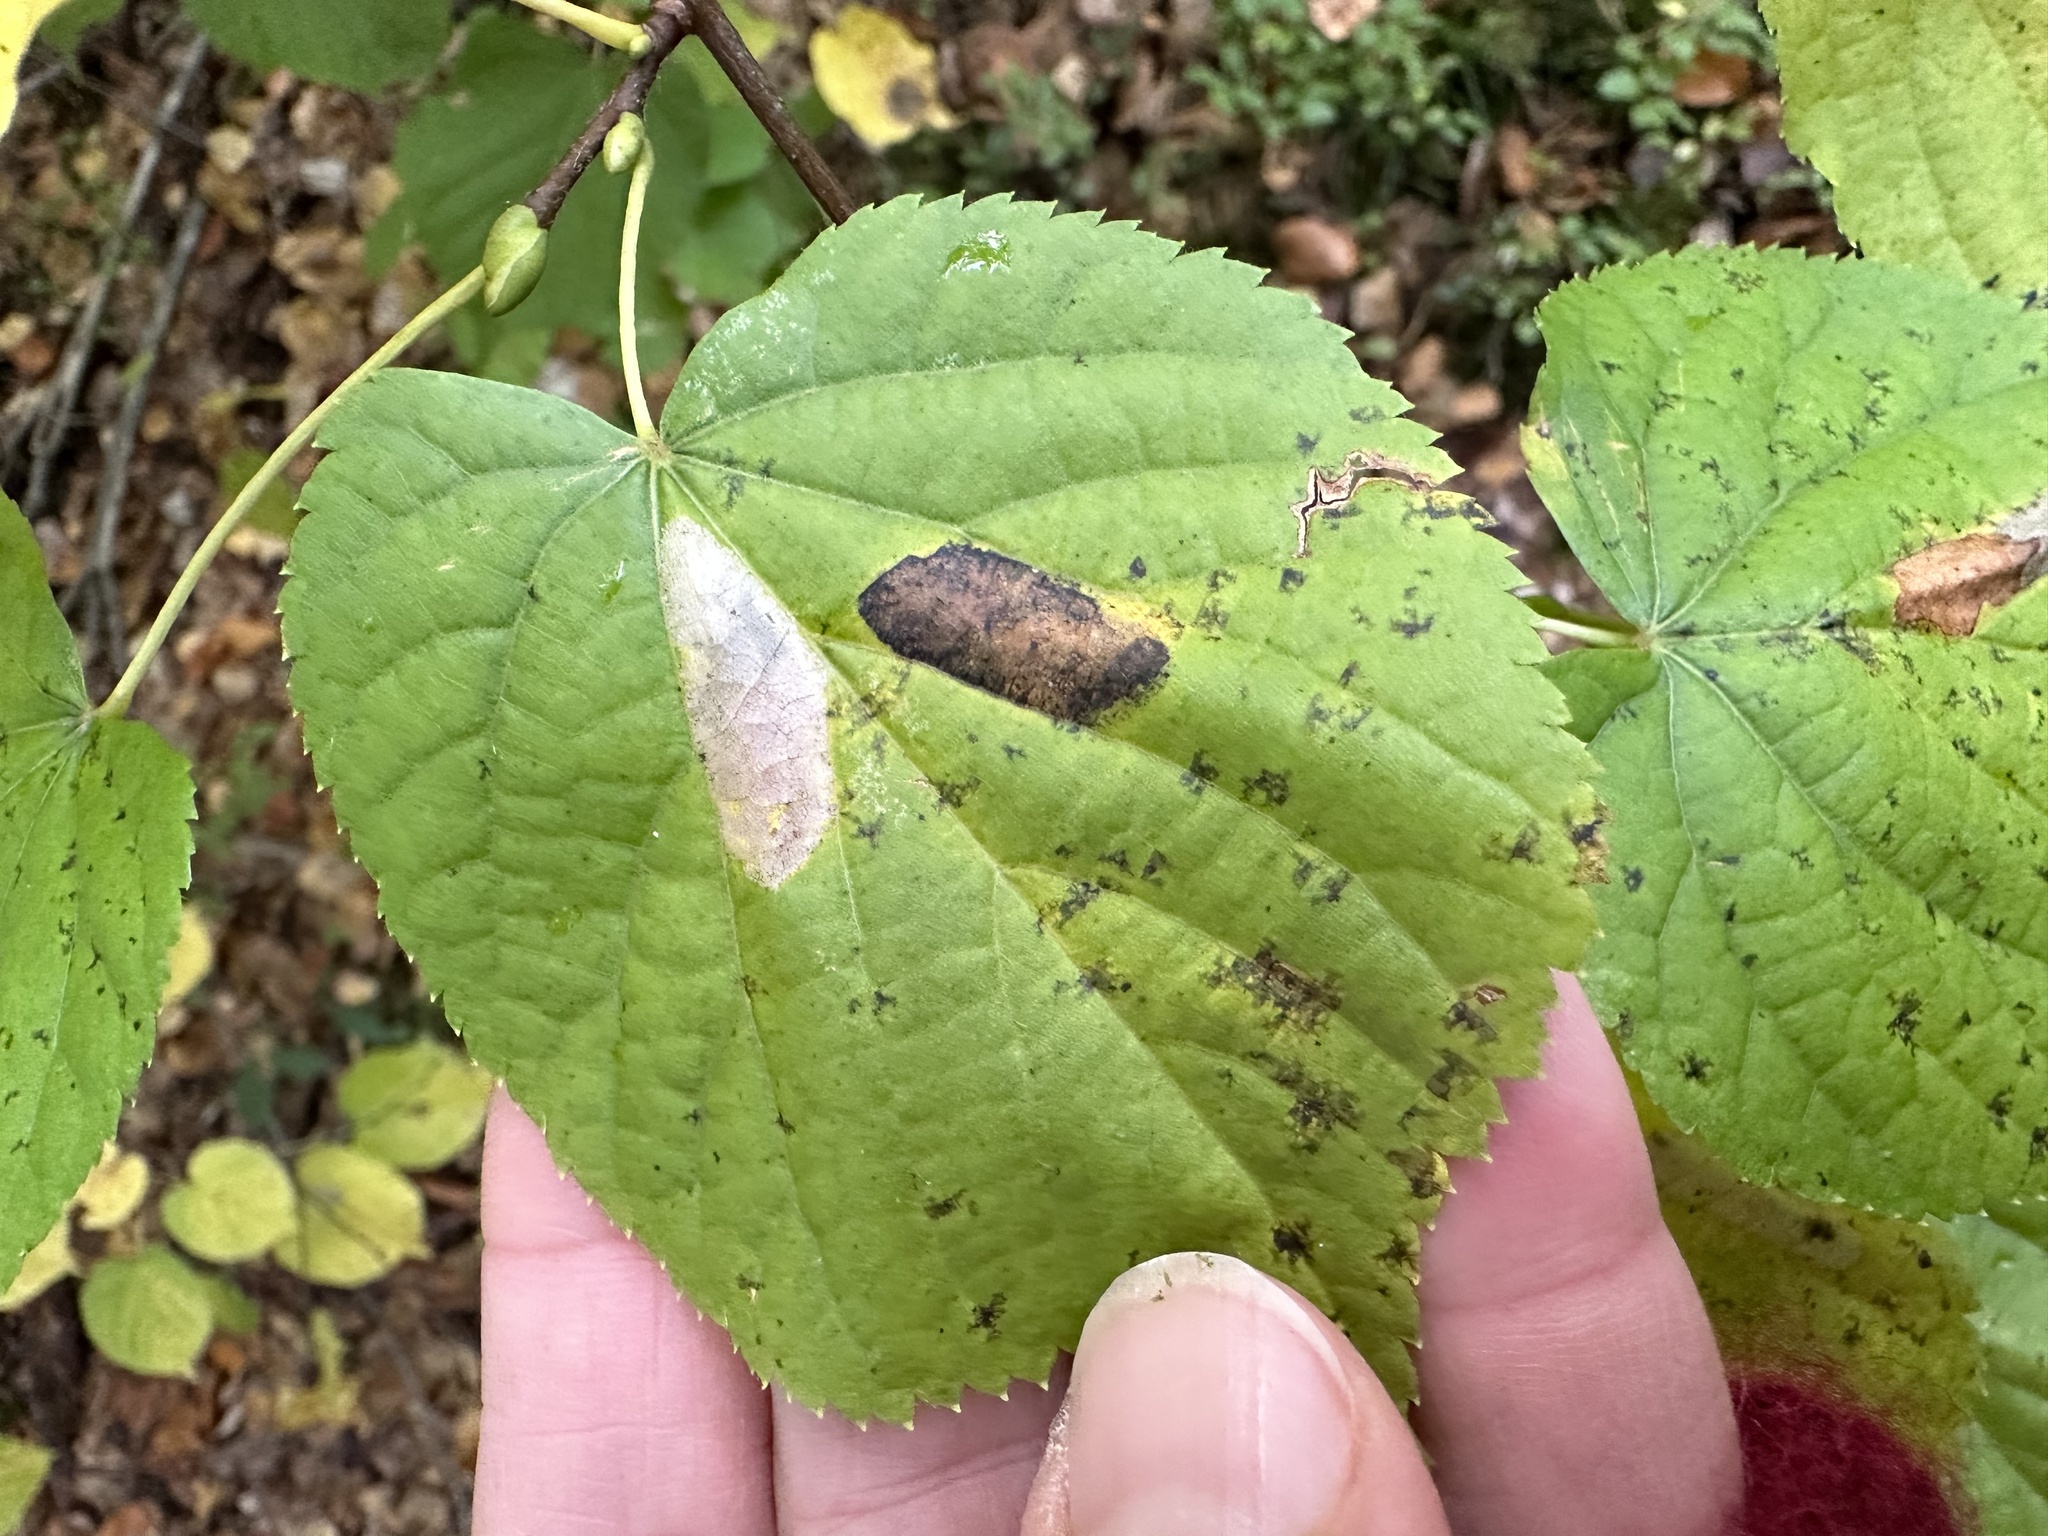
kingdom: Animalia
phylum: Arthropoda
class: Insecta
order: Lepidoptera
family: Gracillariidae
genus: Phyllonorycter
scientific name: Phyllonorycter issikii
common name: Linden midget
